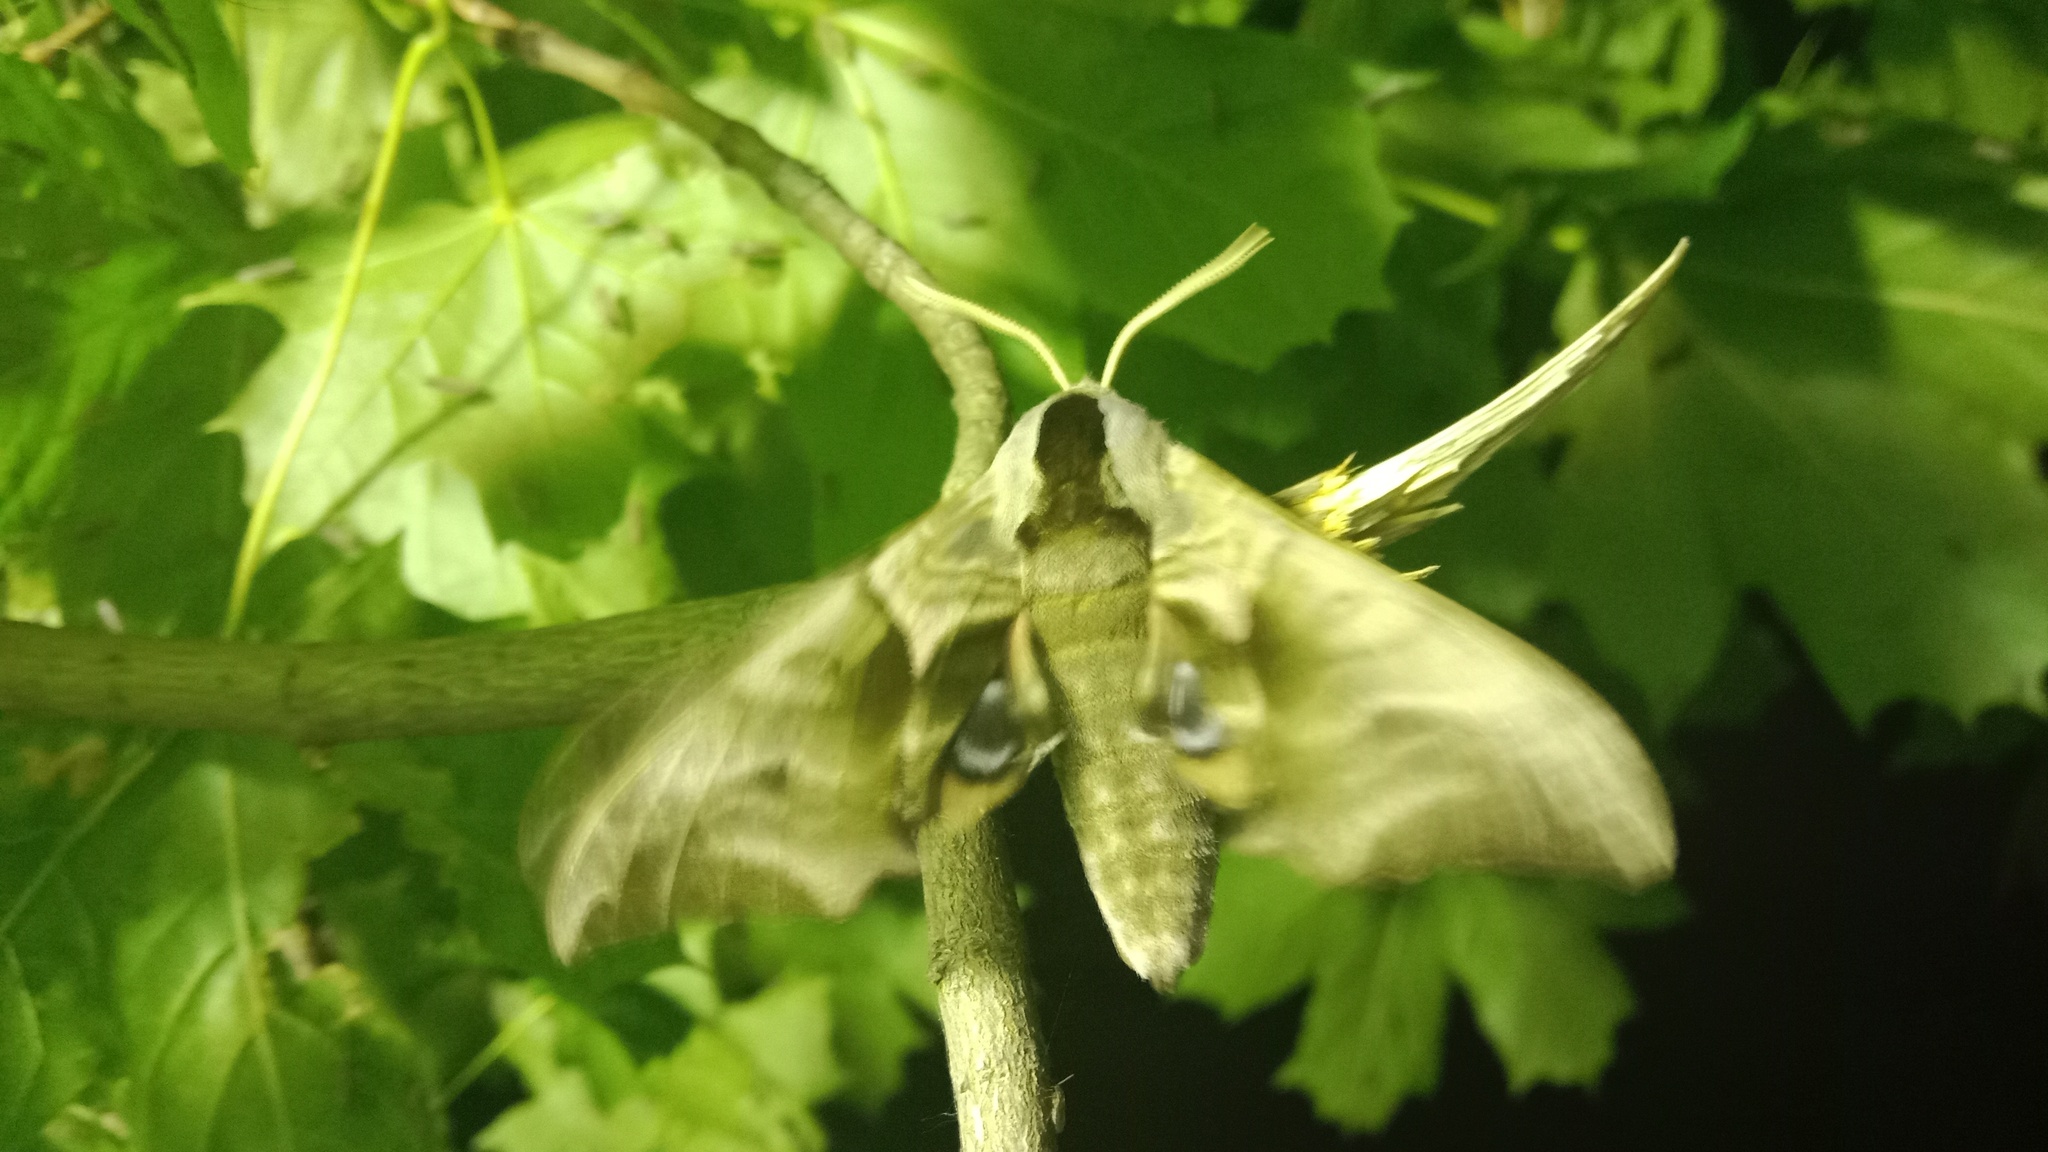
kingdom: Animalia
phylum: Arthropoda
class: Insecta
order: Lepidoptera
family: Sphingidae
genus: Smerinthus
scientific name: Smerinthus ocellata
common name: Eyed hawk-moth
